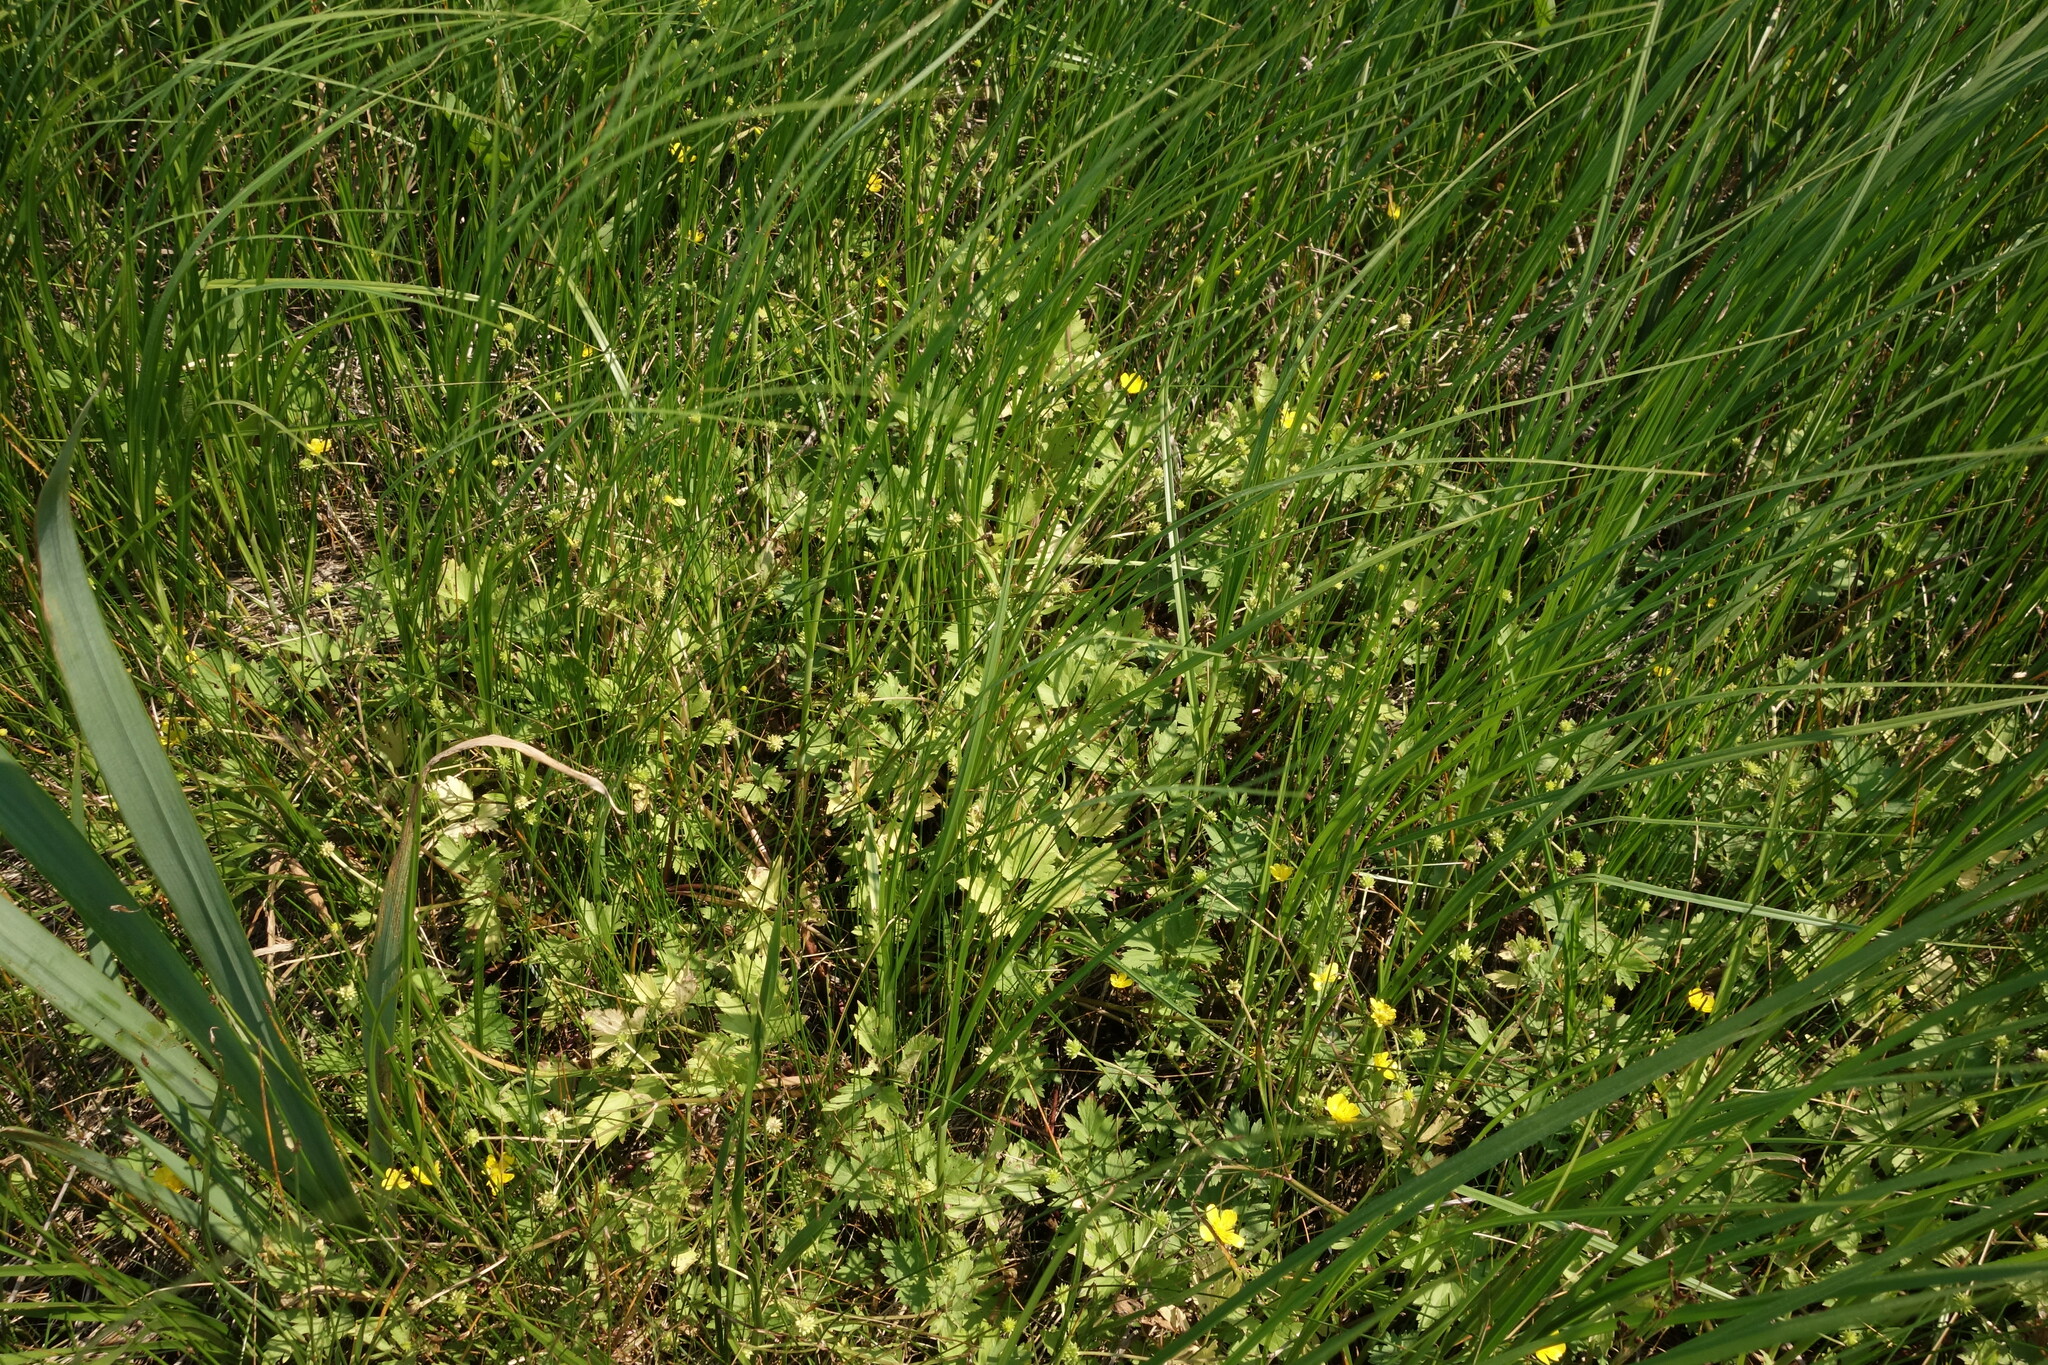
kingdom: Plantae
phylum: Tracheophyta
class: Magnoliopsida
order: Ranunculales
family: Ranunculaceae
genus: Ranunculus
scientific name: Ranunculus repens
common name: Creeping buttercup
